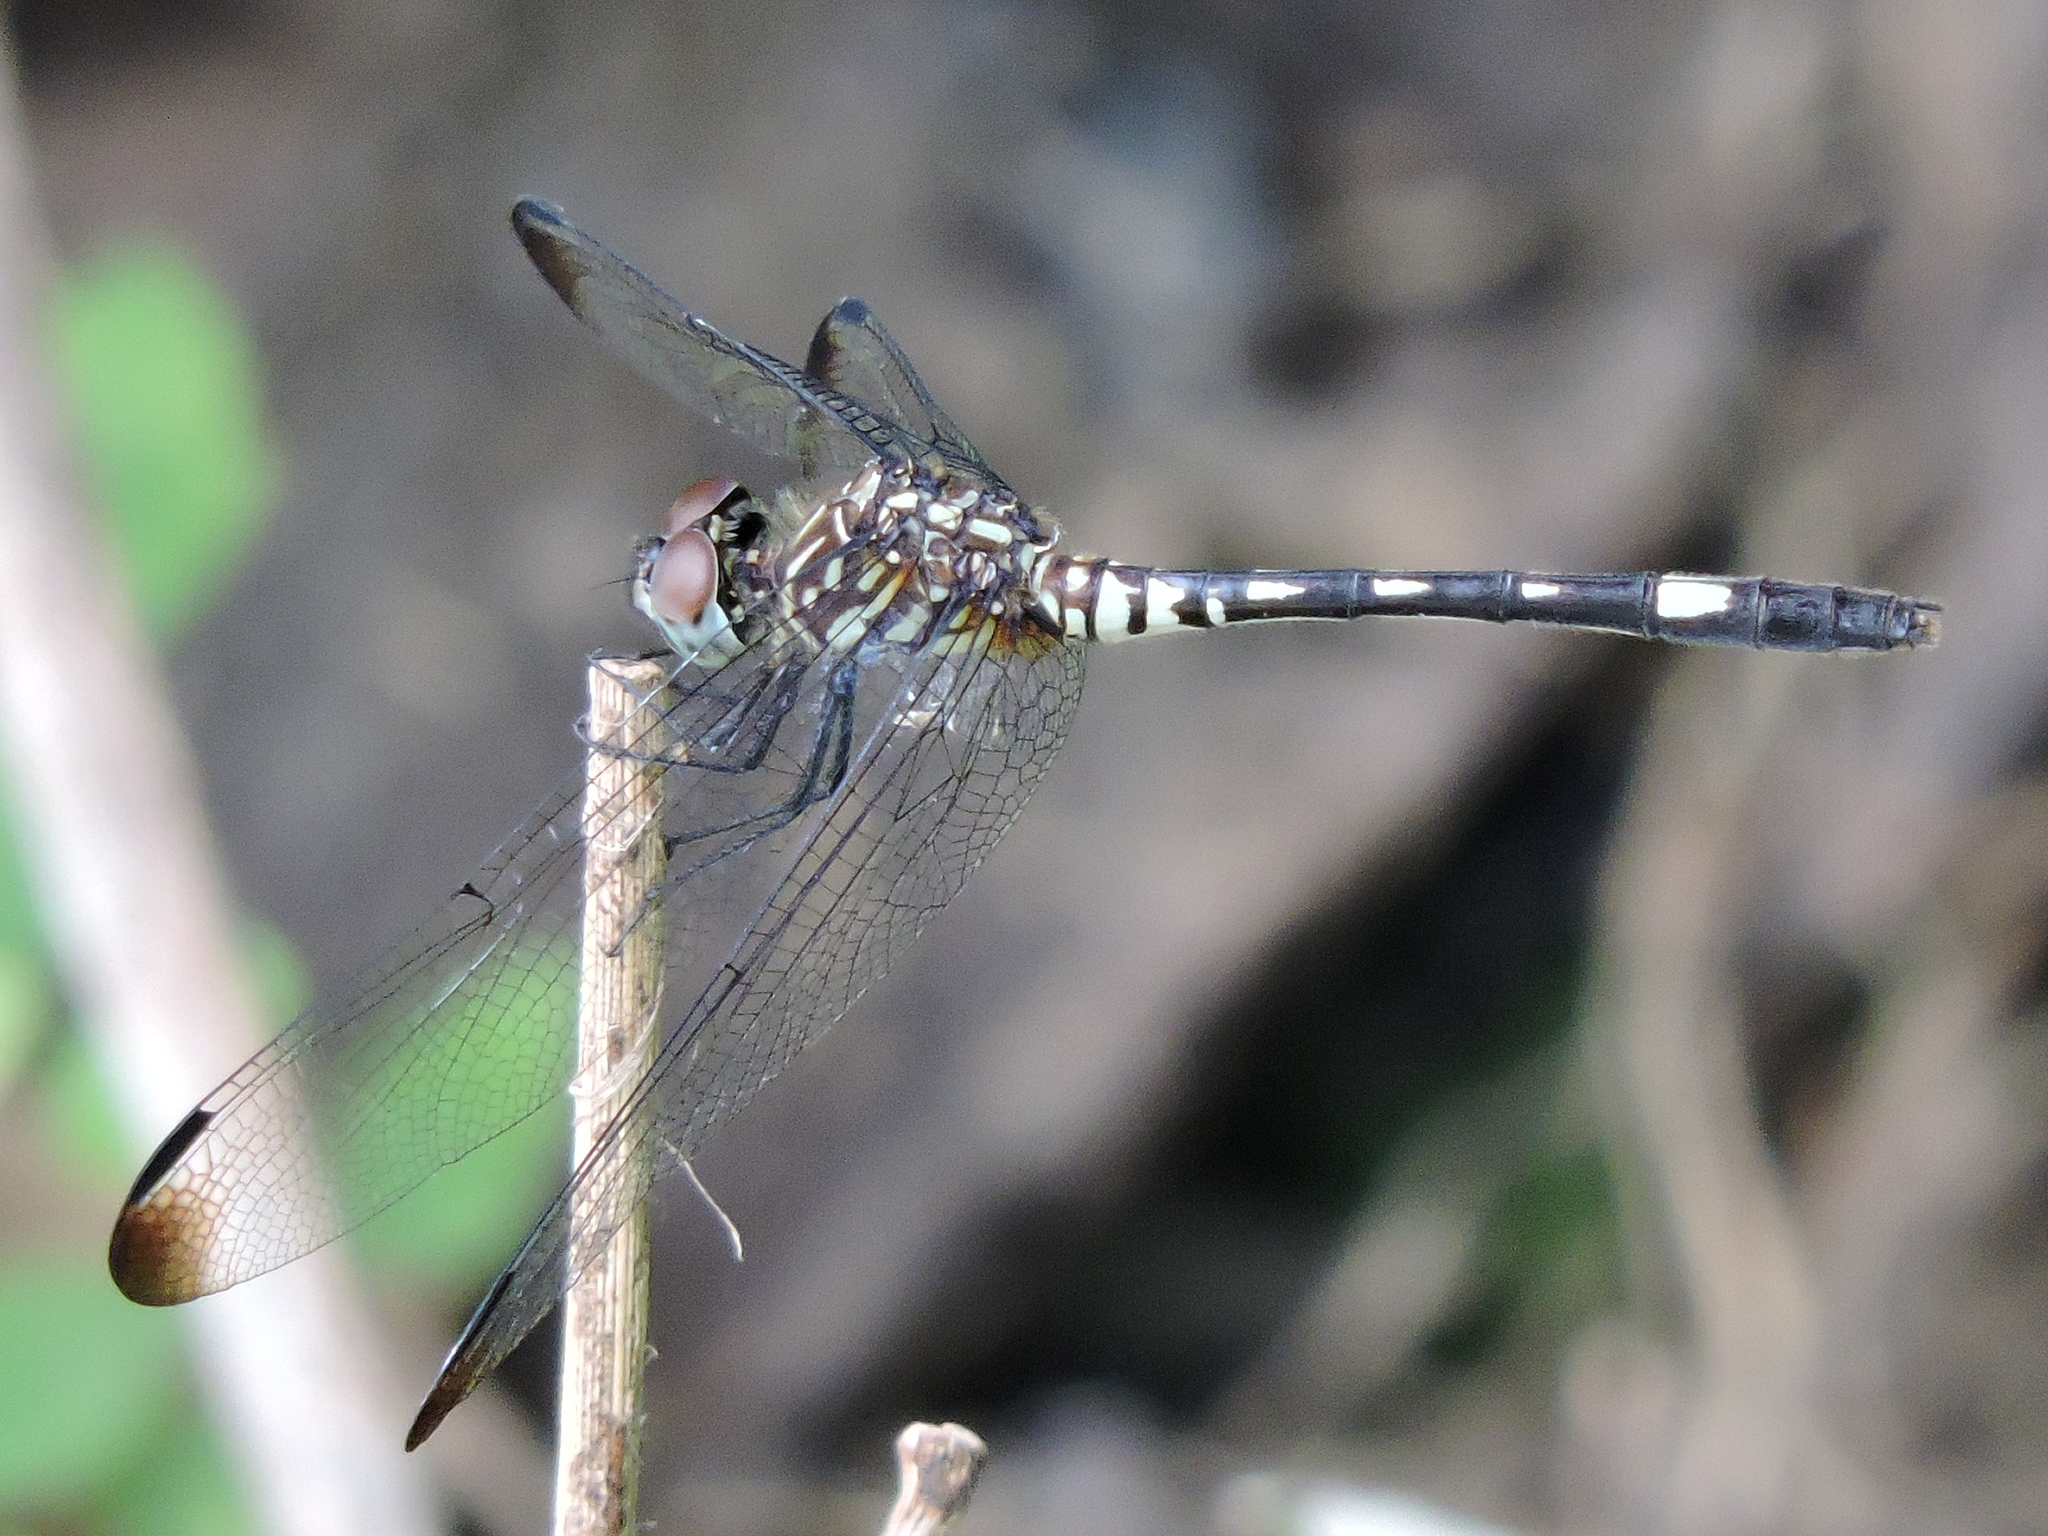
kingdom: Animalia
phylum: Arthropoda
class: Insecta
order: Odonata
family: Libellulidae
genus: Dythemis
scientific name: Dythemis velox
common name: Swift setwing
